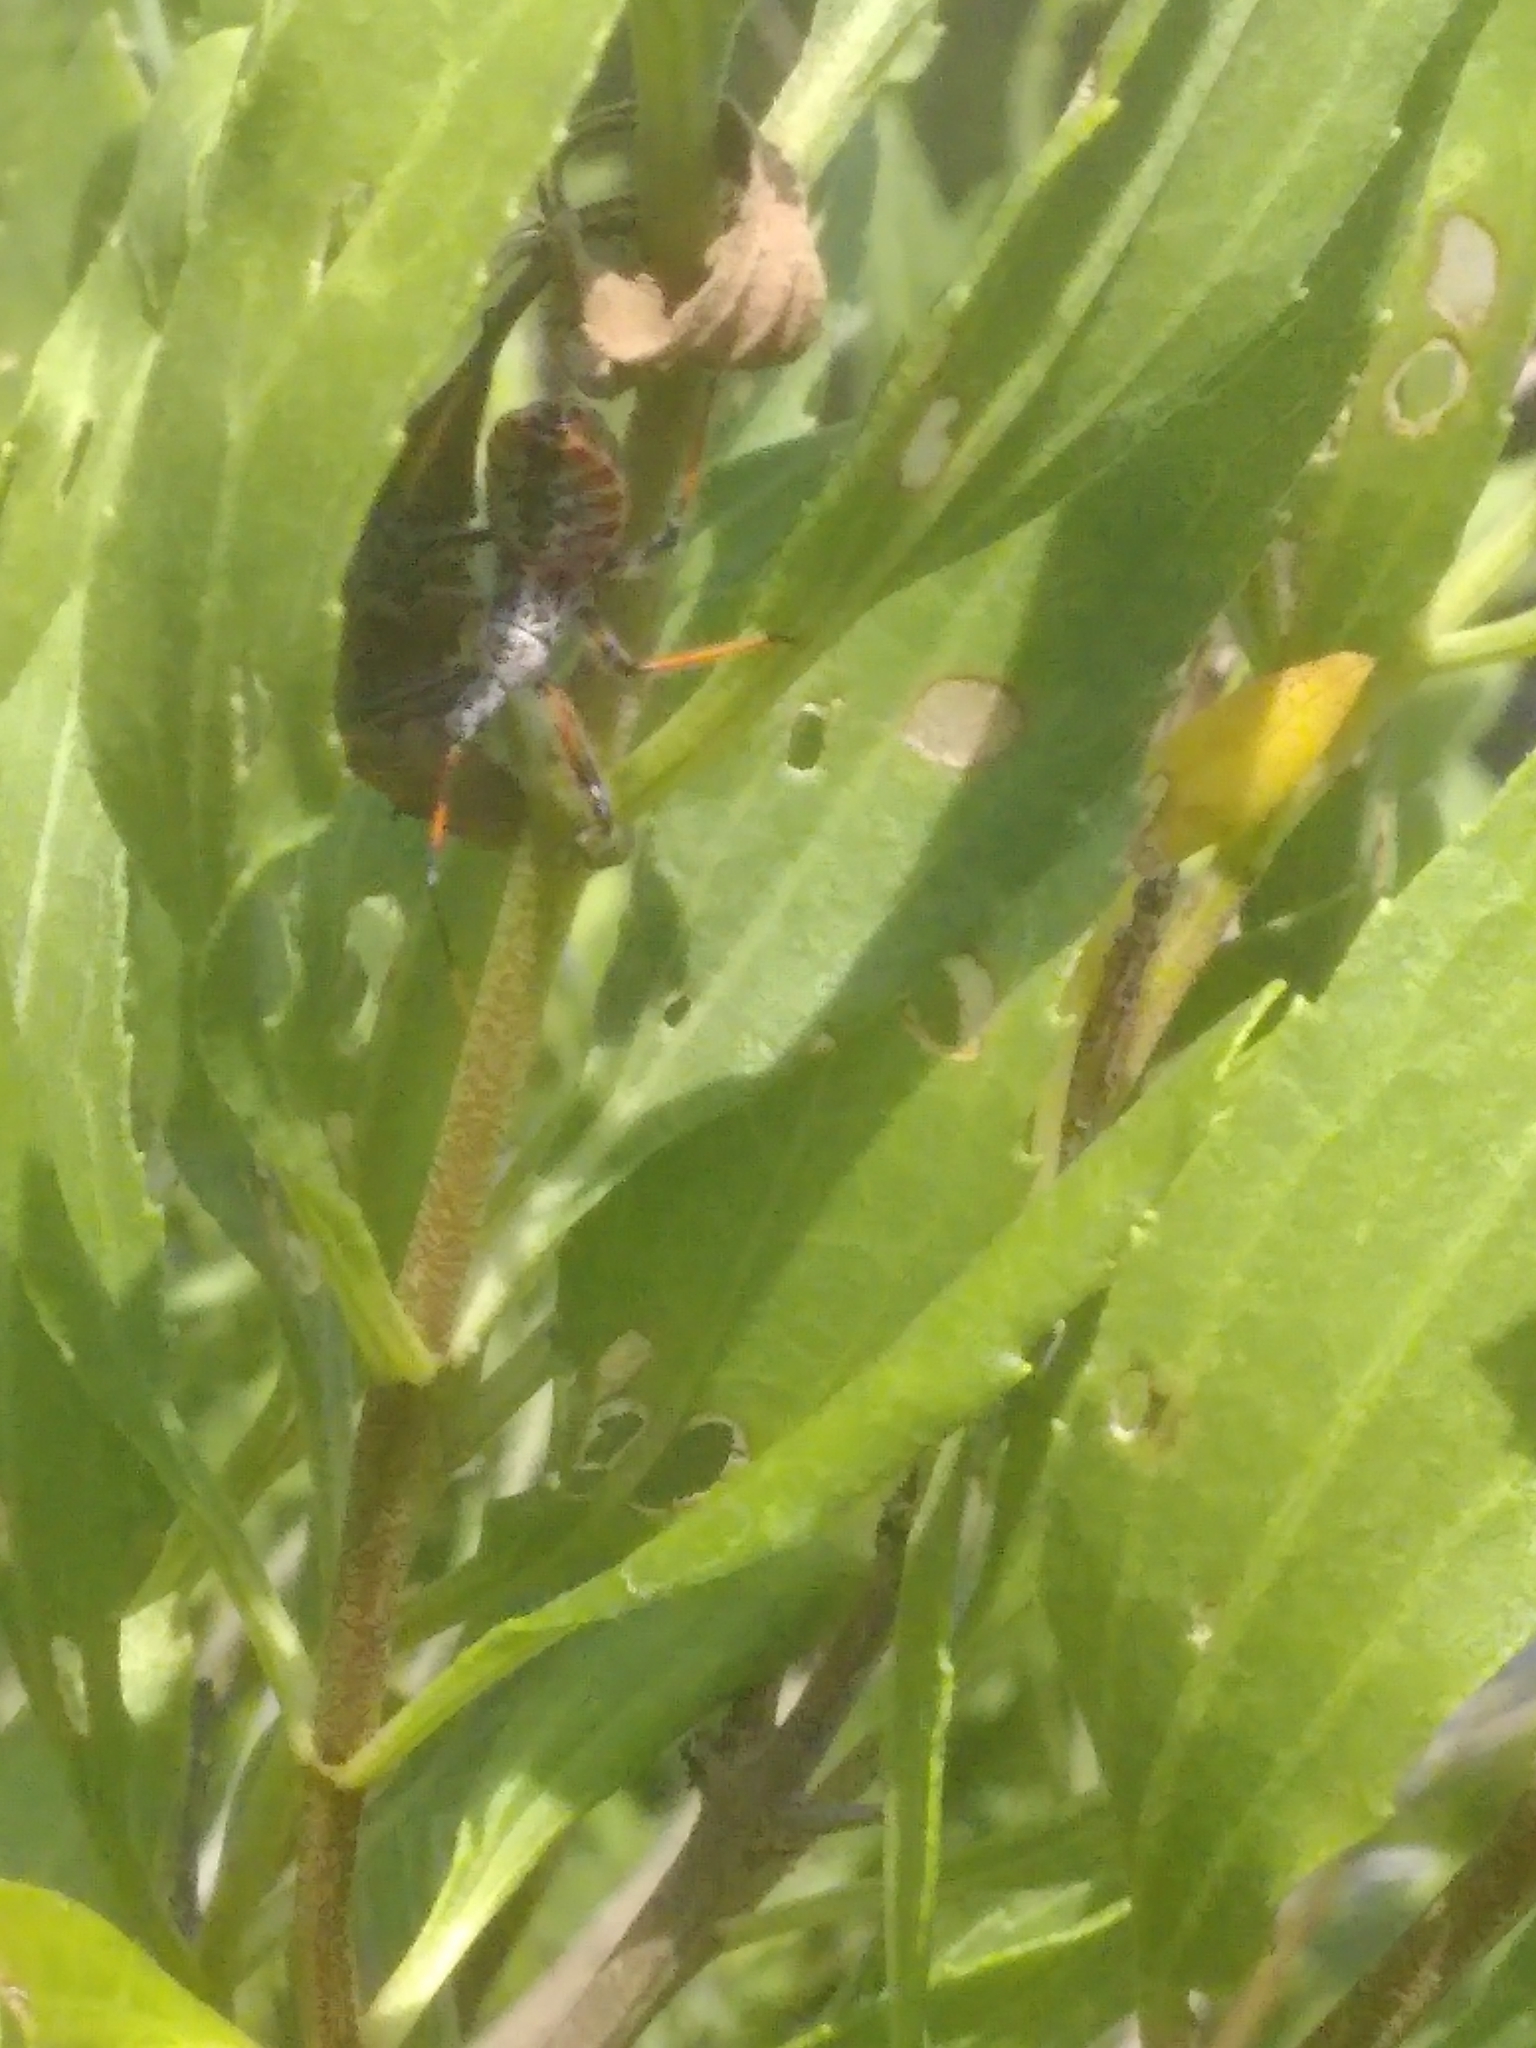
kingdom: Animalia
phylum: Arthropoda
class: Insecta
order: Hemiptera
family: Reduviidae
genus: Arilus
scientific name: Arilus cristatus
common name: North american wheel bug
